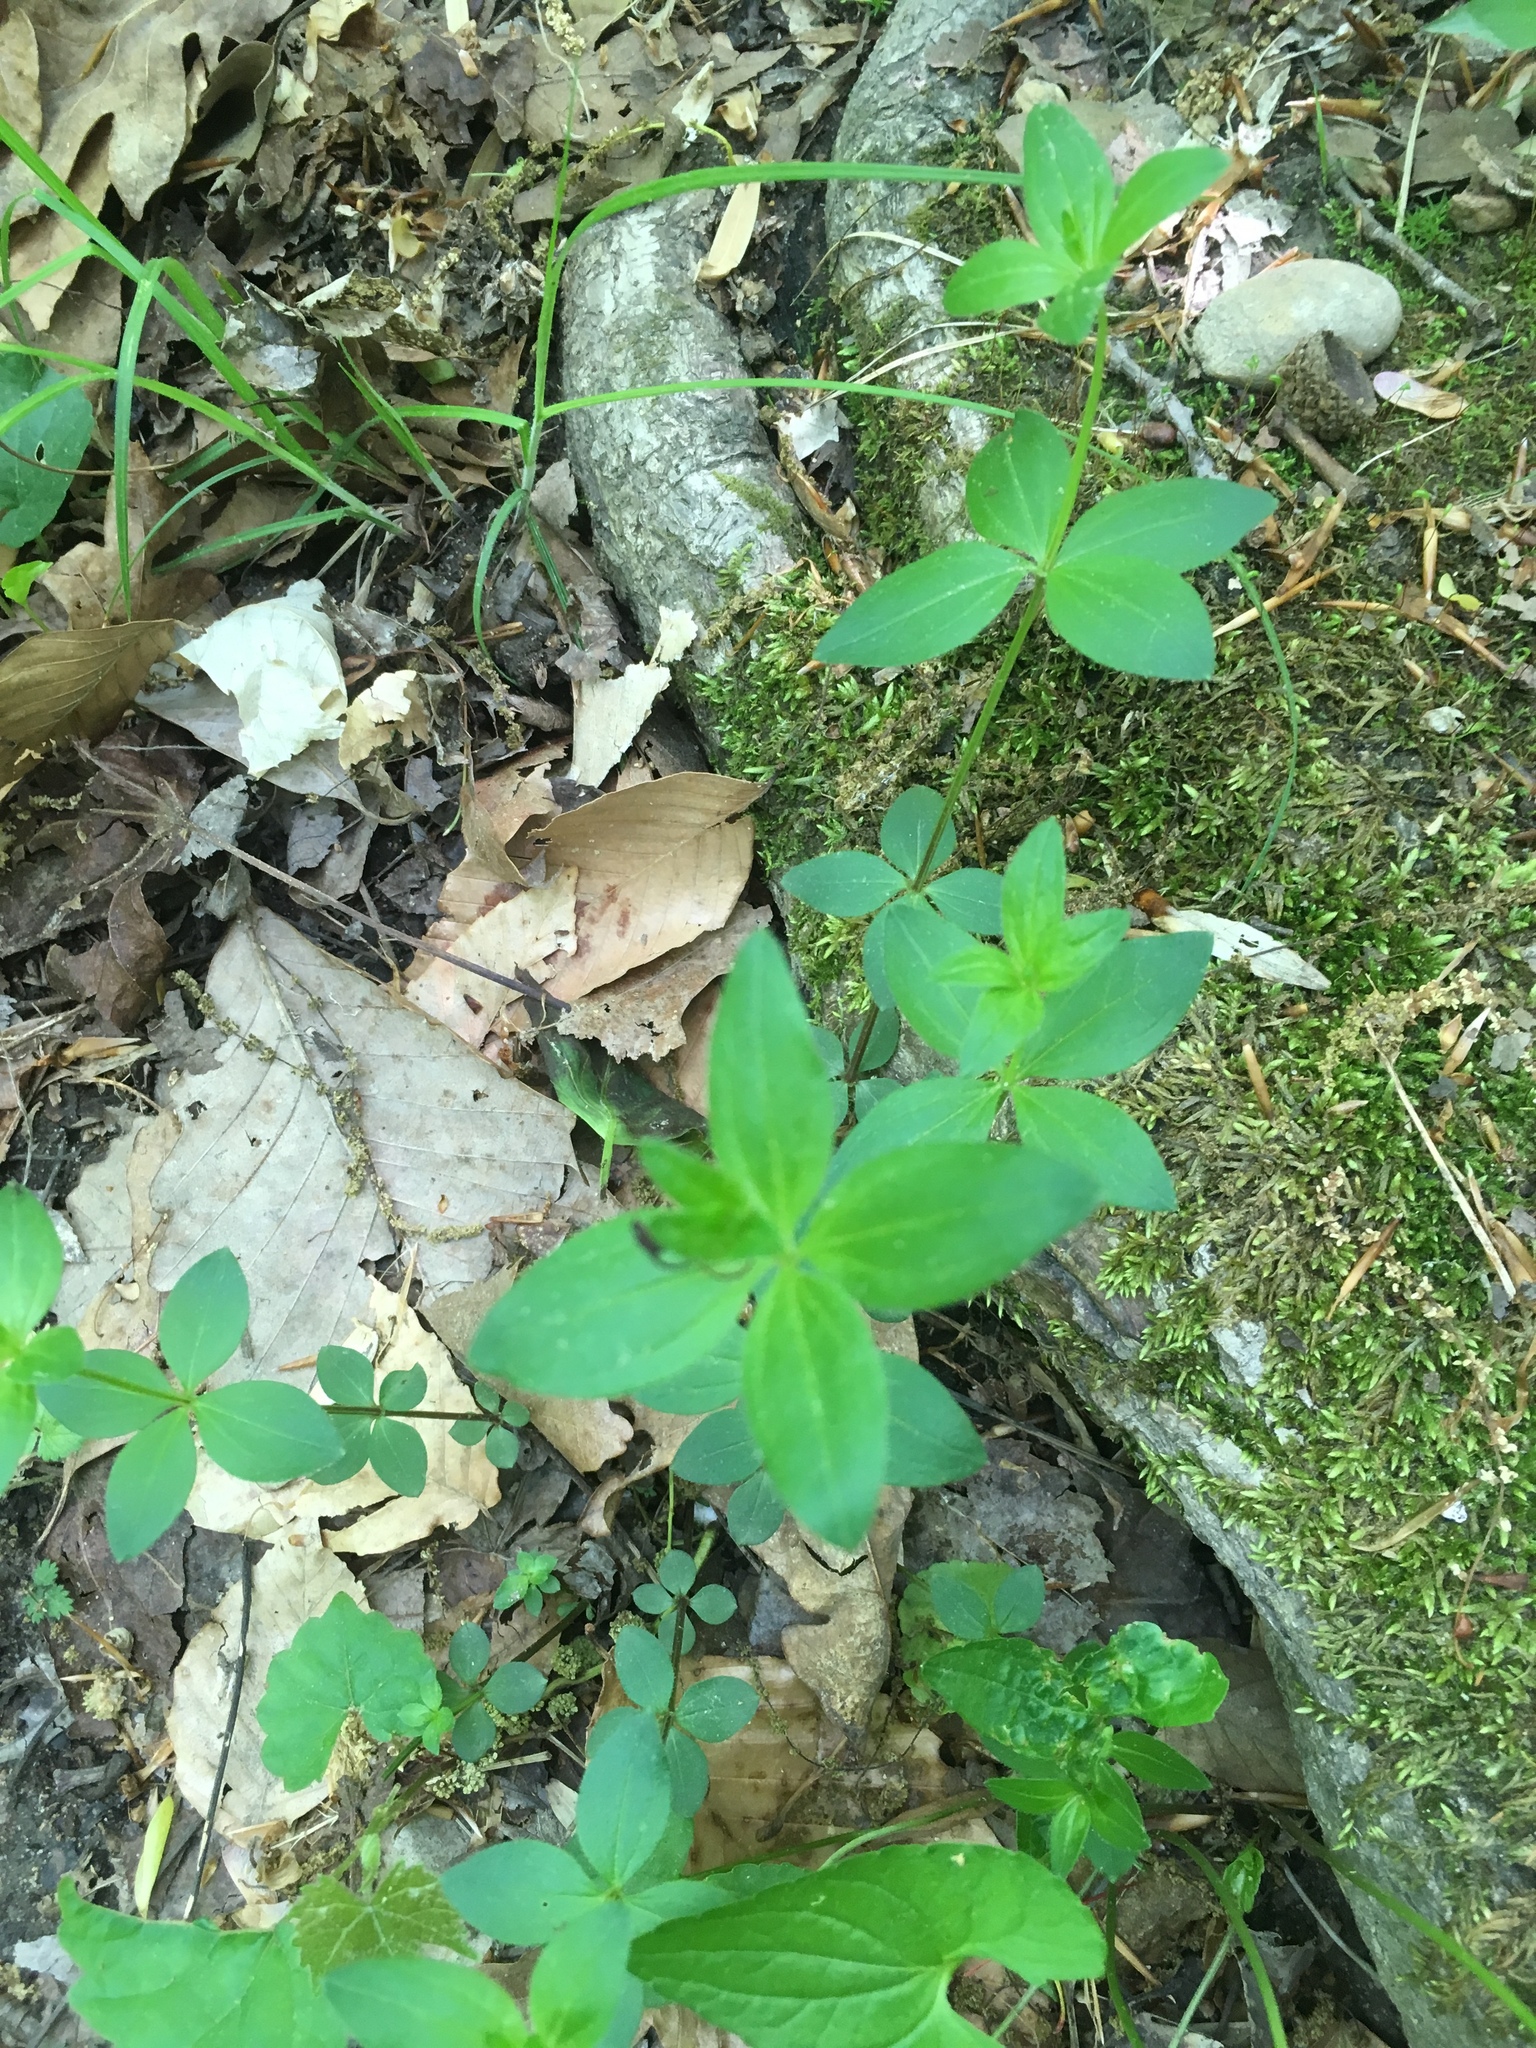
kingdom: Plantae
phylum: Tracheophyta
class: Magnoliopsida
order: Gentianales
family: Rubiaceae
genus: Galium
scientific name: Galium circaezans
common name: Forest bedstraw
